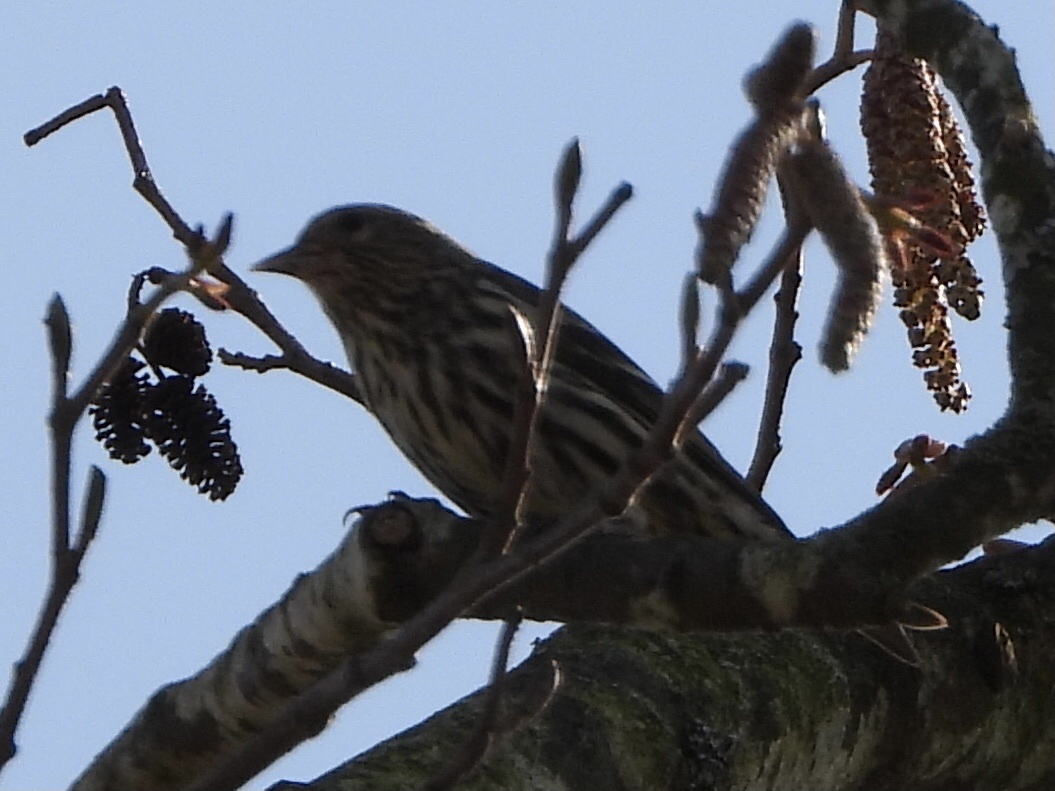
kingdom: Animalia
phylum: Chordata
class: Aves
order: Passeriformes
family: Fringillidae
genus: Spinus
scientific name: Spinus pinus
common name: Pine siskin
